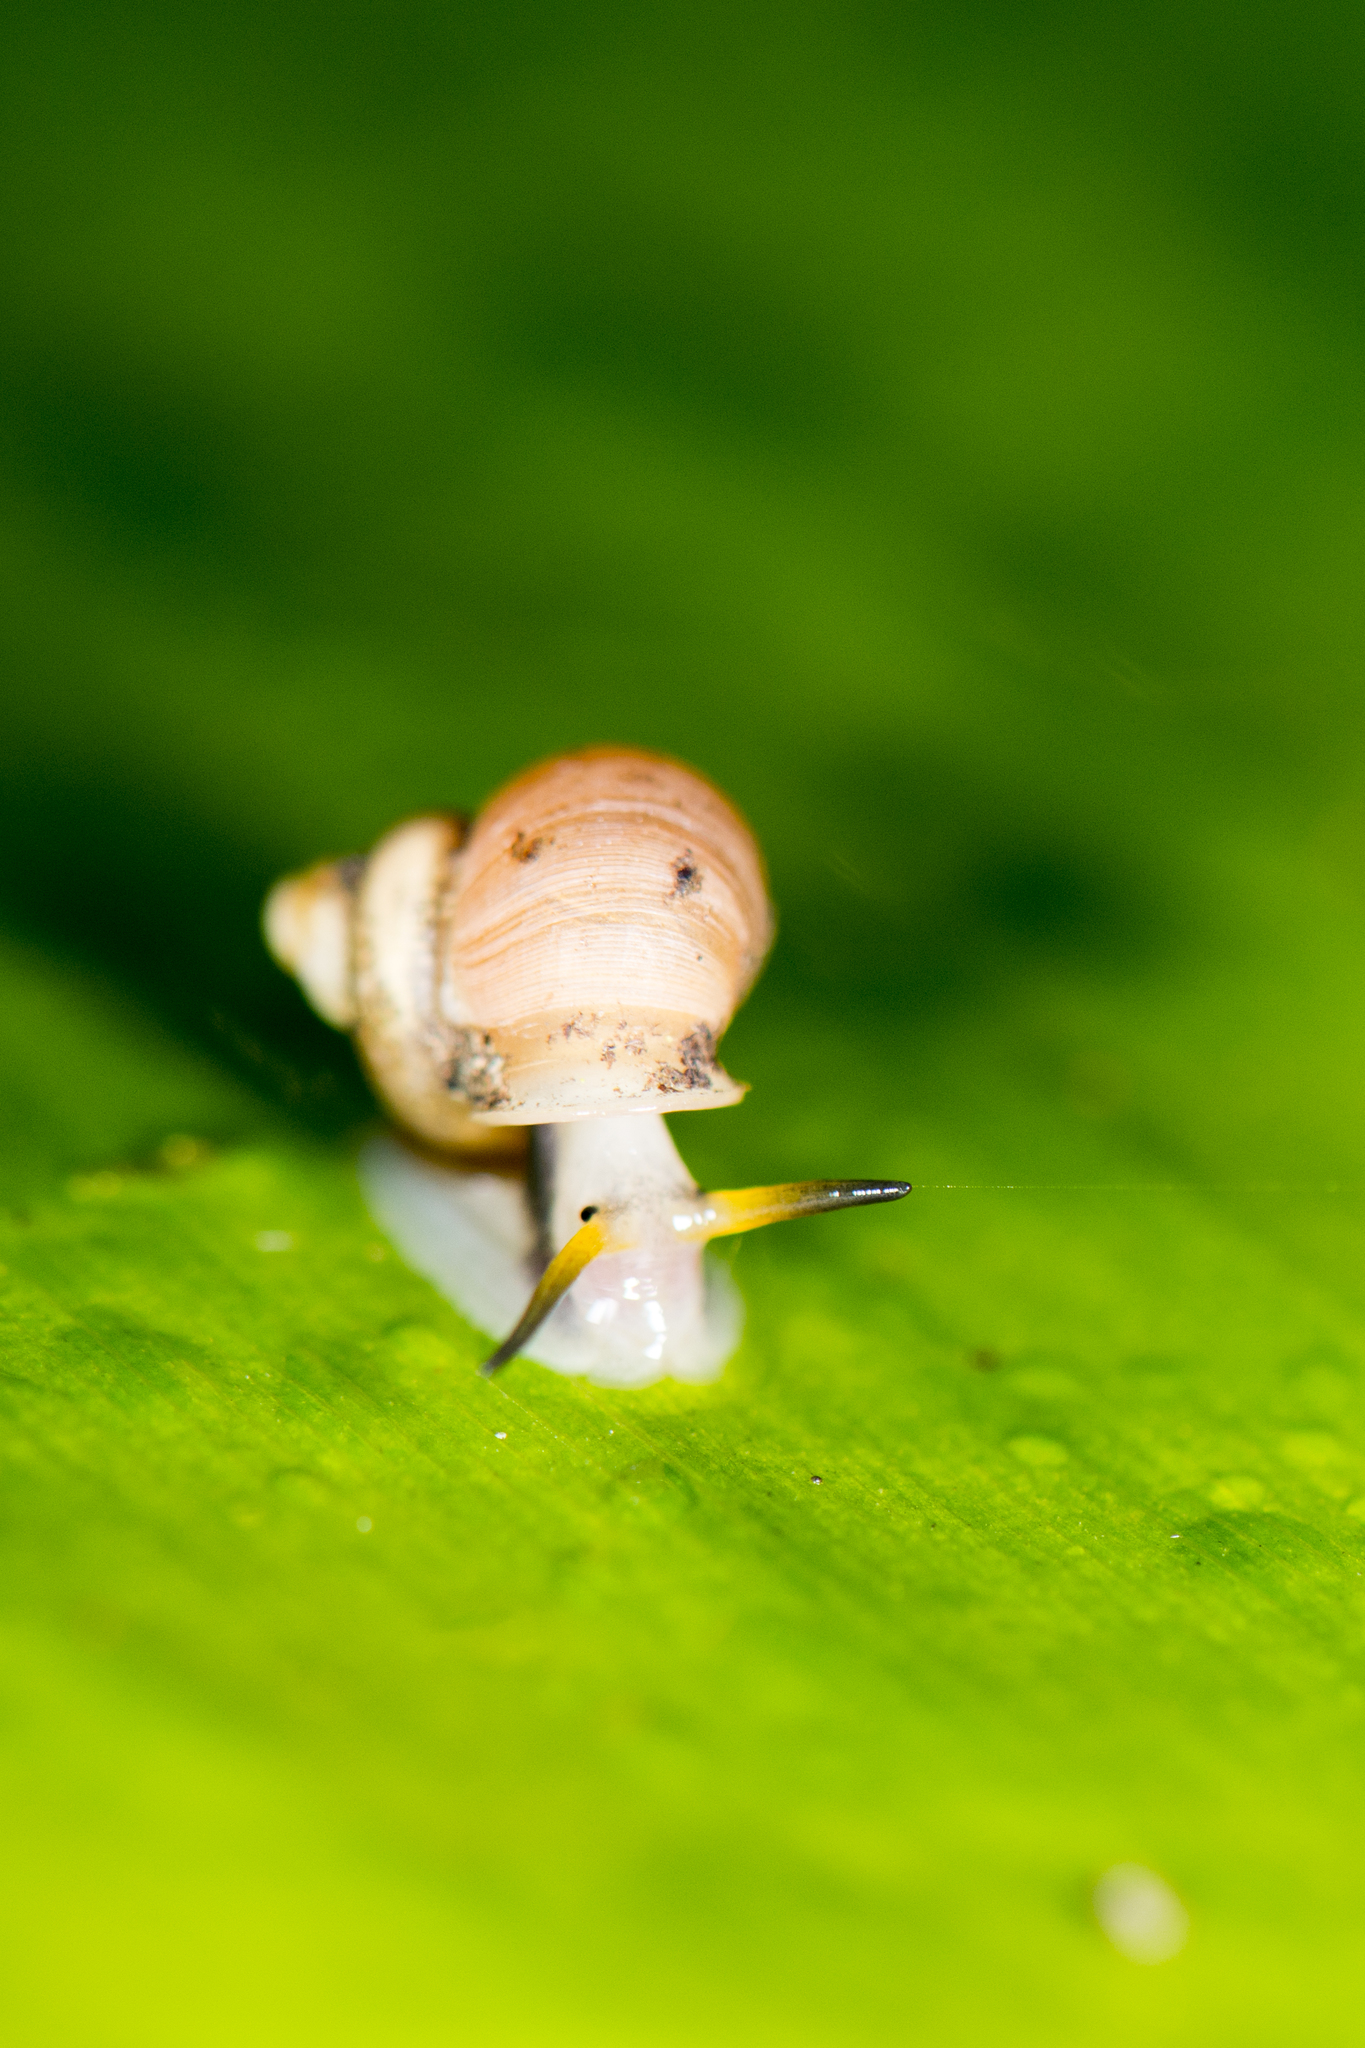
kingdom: Animalia
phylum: Mollusca
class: Gastropoda
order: Architaenioglossa
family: Alycaeidae
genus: Dioryx
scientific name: Dioryx swinhoei
